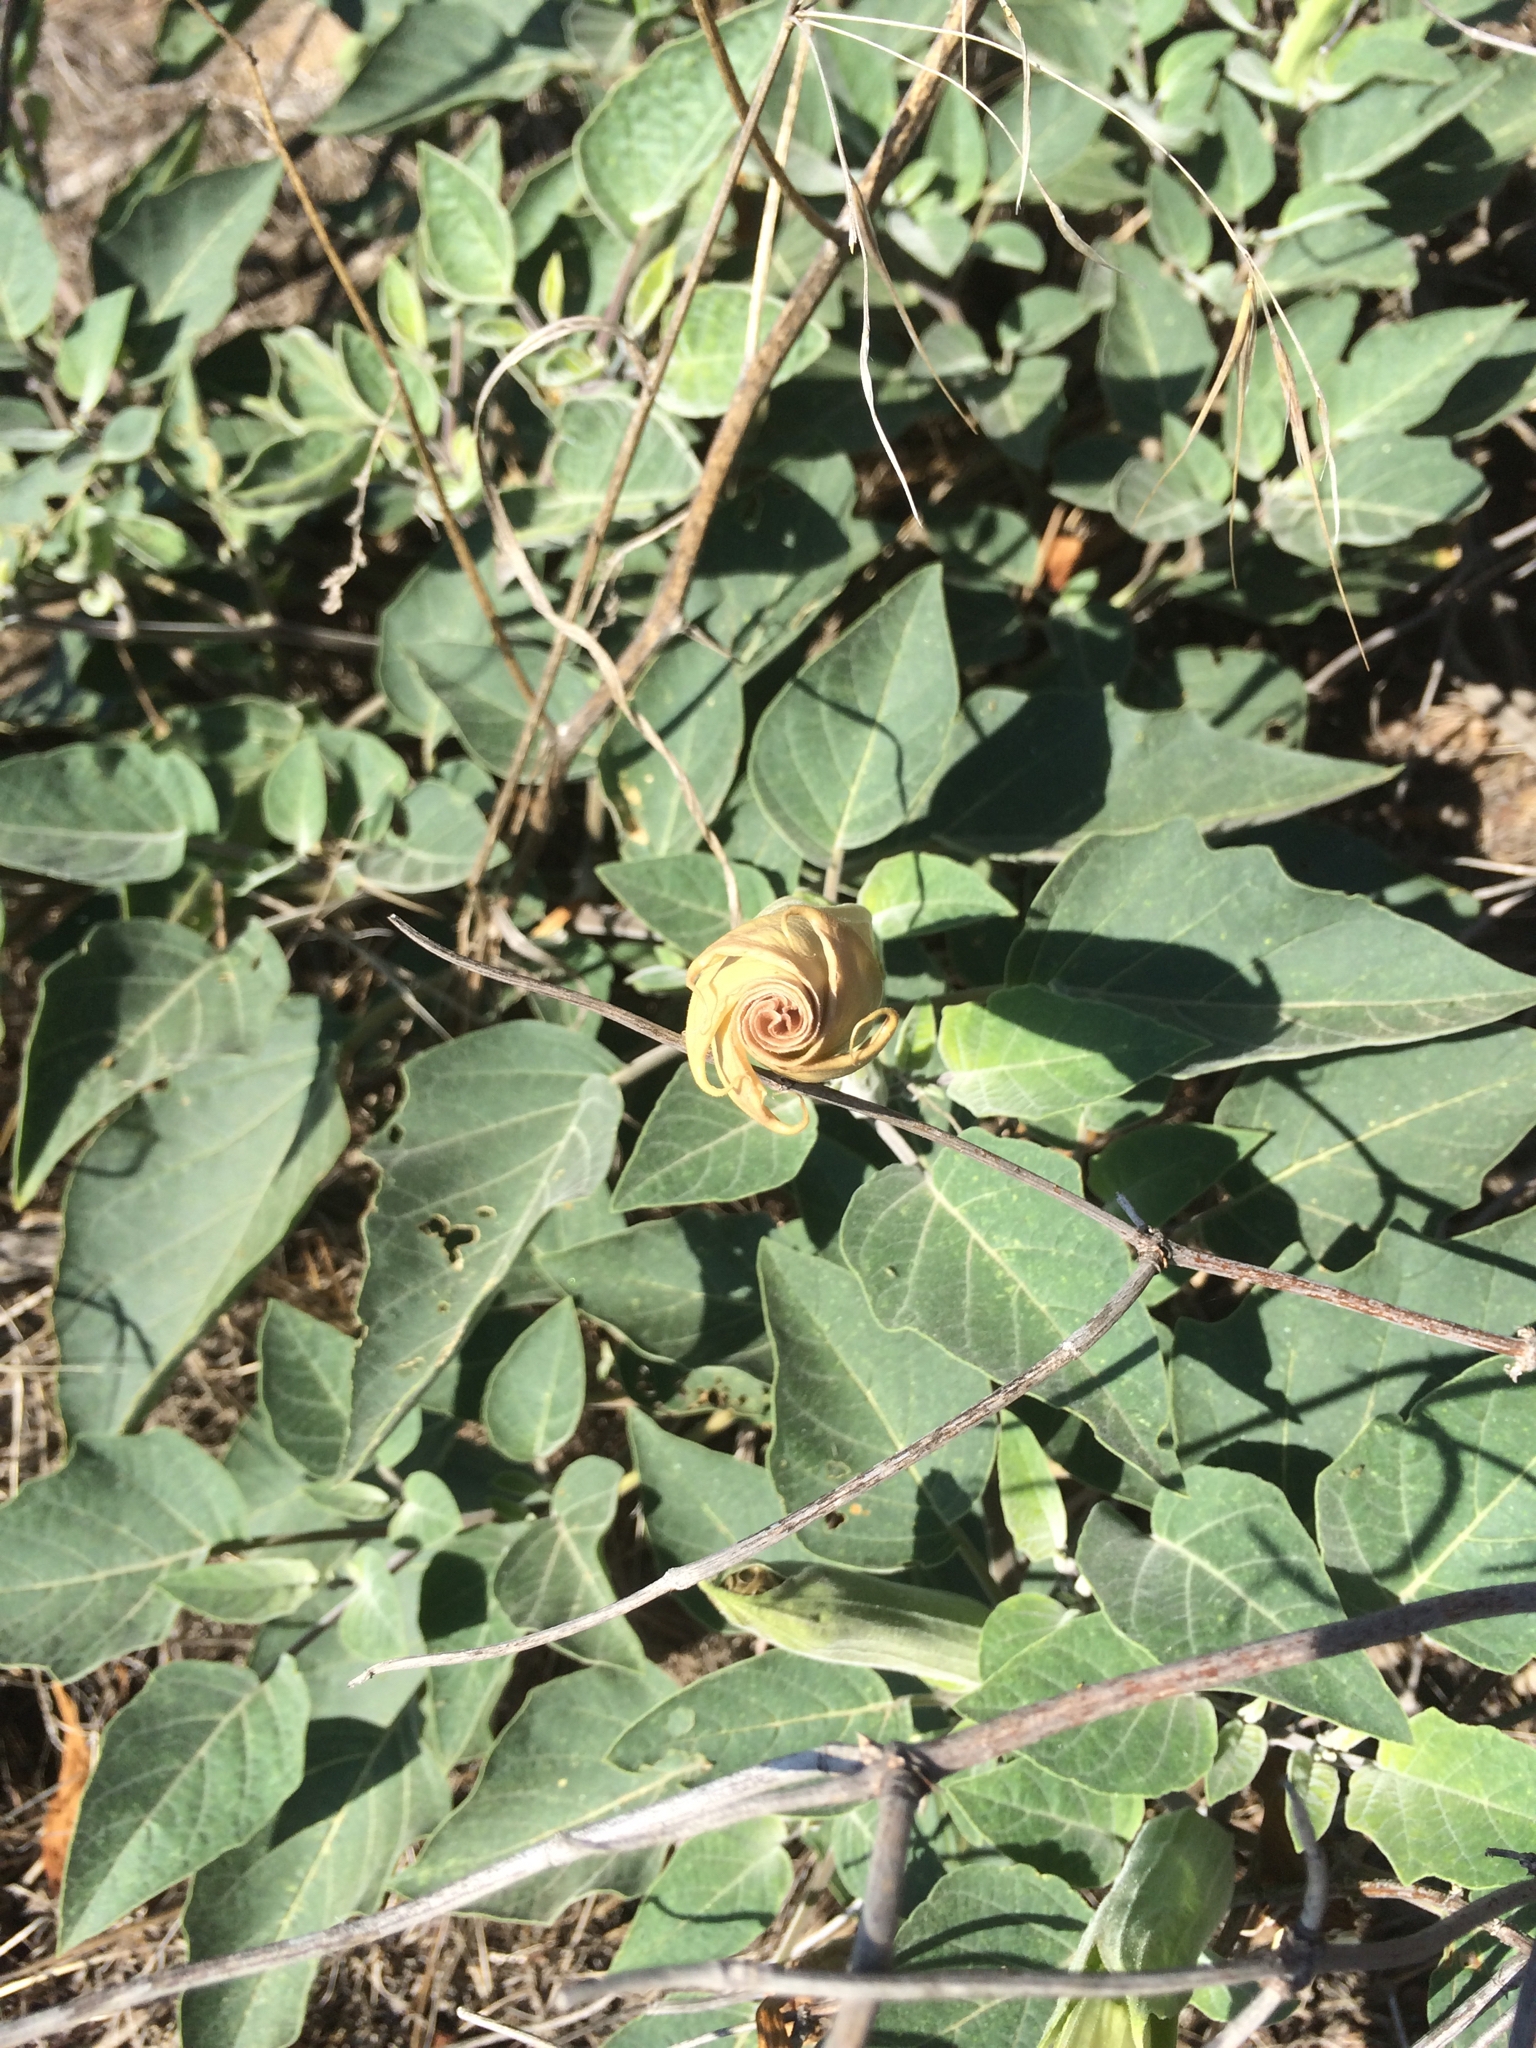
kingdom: Plantae
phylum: Tracheophyta
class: Magnoliopsida
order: Solanales
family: Solanaceae
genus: Datura
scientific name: Datura wrightii
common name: Sacred thorn-apple
